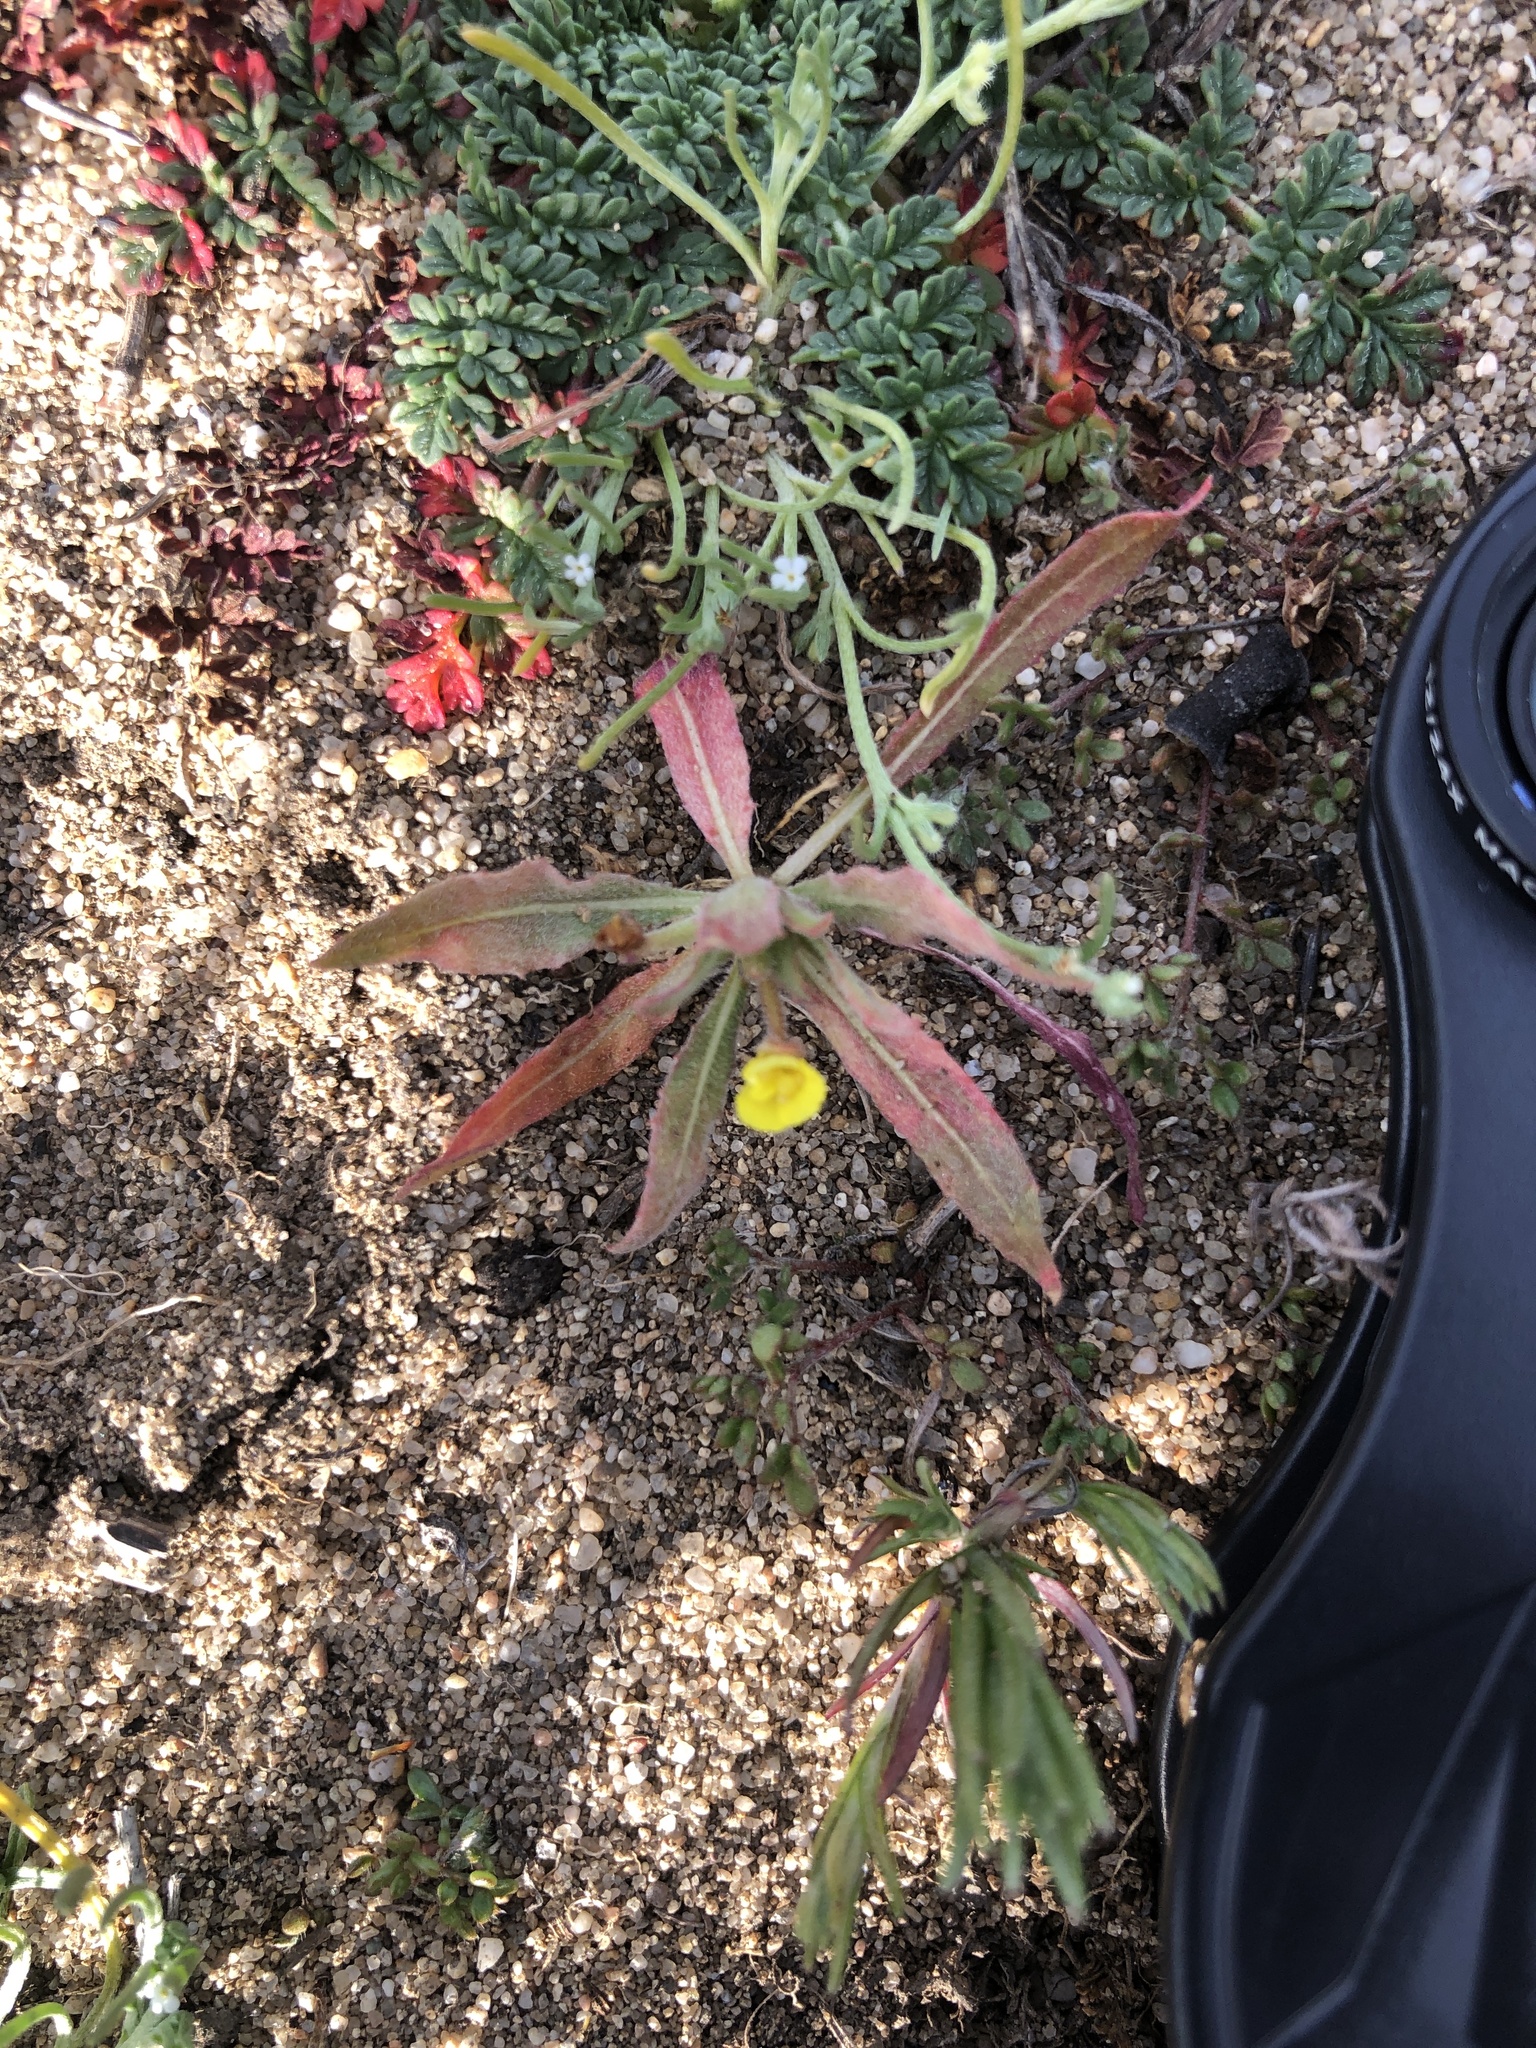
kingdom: Plantae
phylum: Tracheophyta
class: Magnoliopsida
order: Myrtales
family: Onagraceae
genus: Camissoniopsis
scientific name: Camissoniopsis micrantha
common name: Miniature suncup
